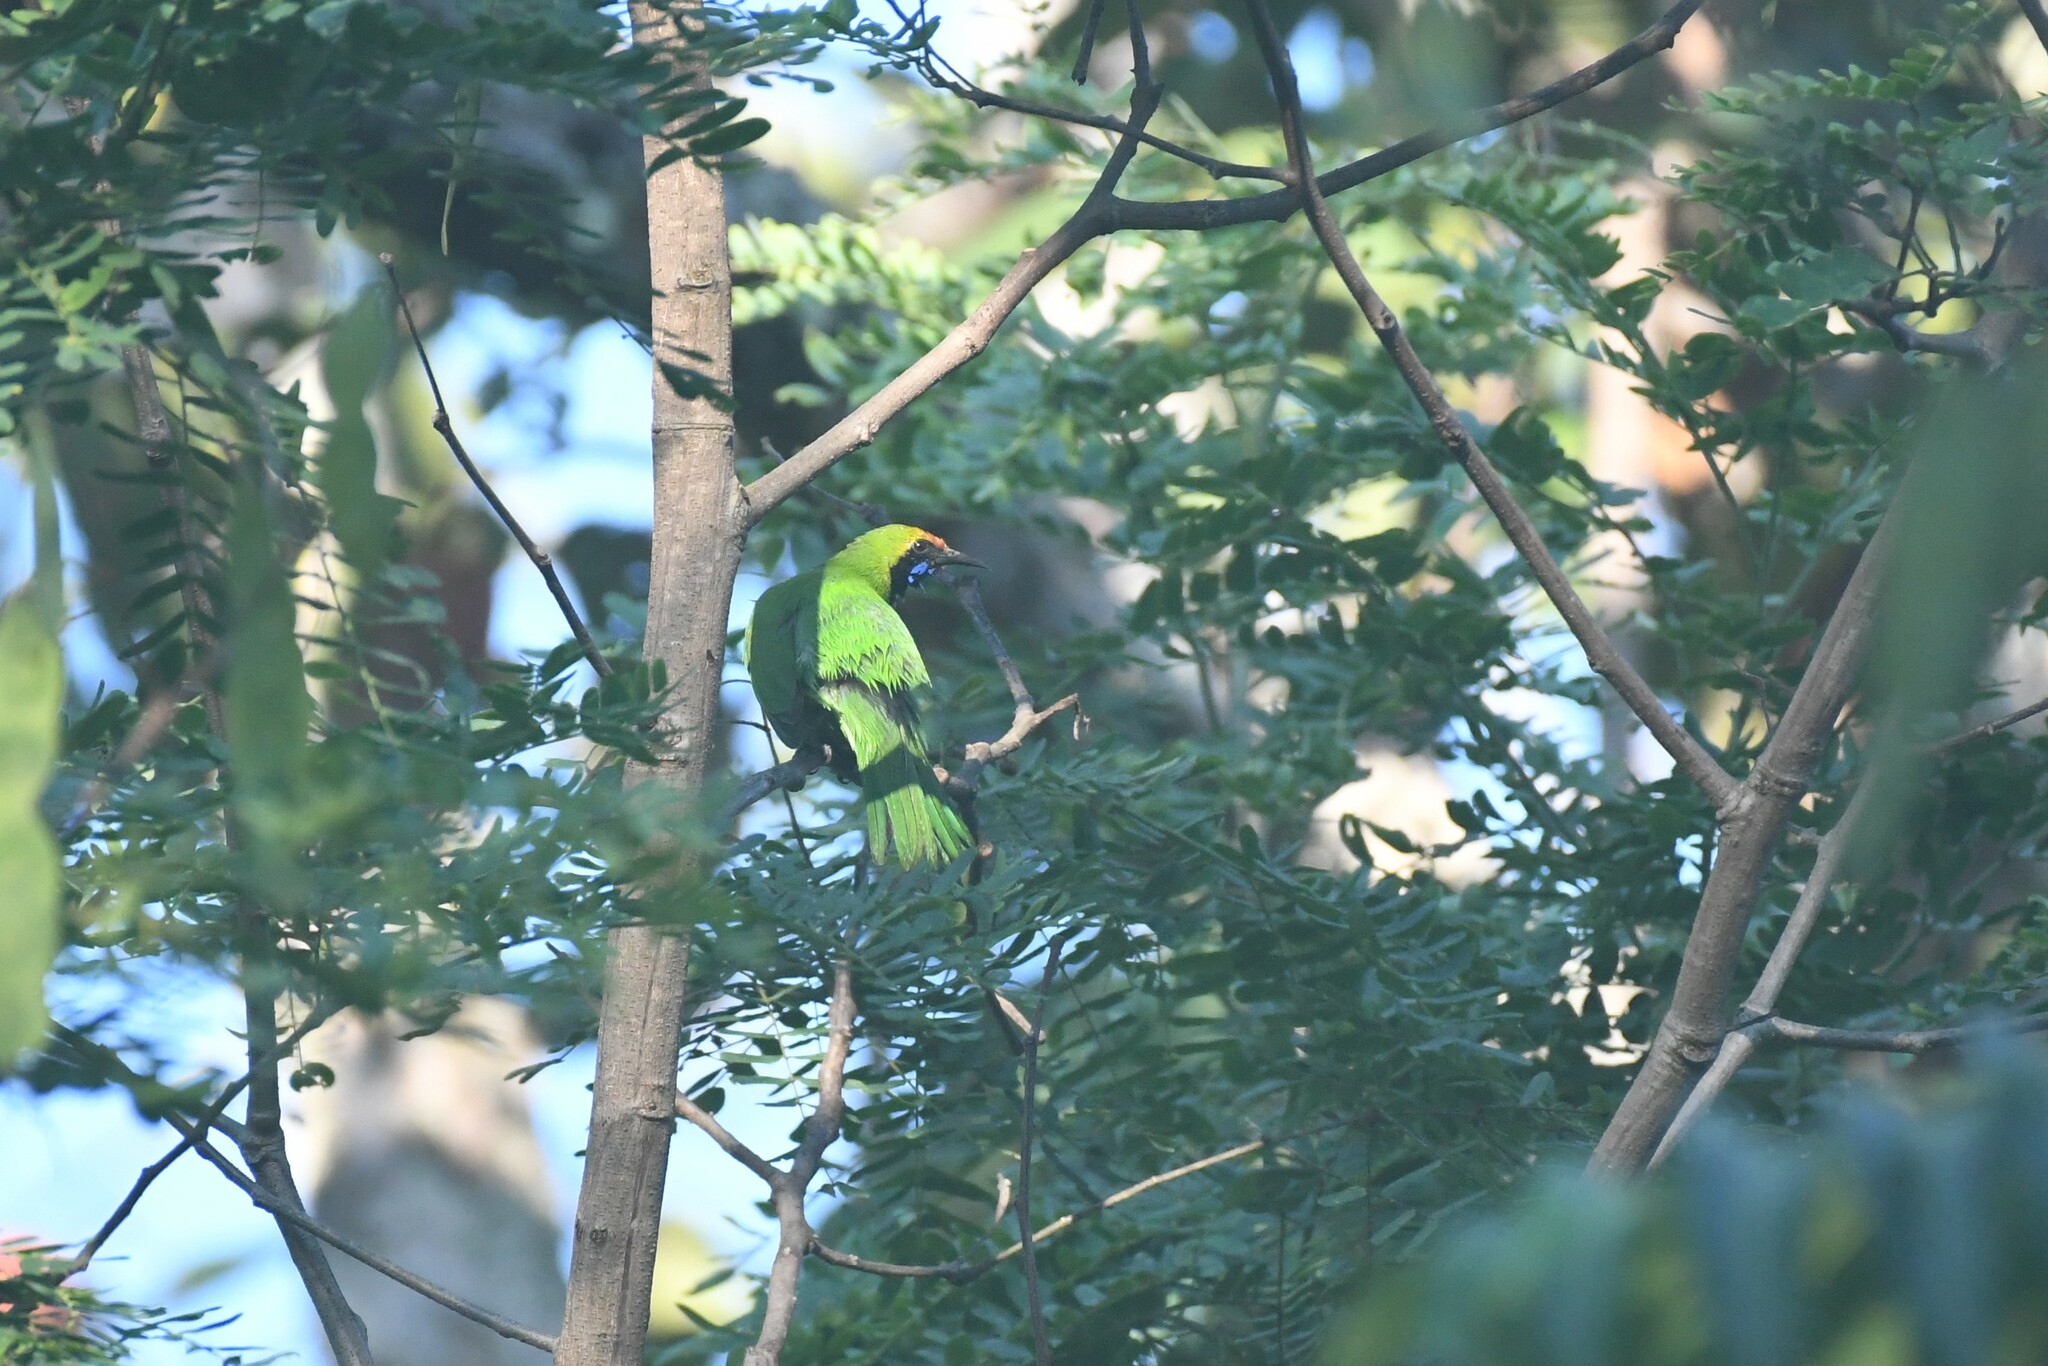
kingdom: Animalia
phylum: Chordata
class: Aves
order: Passeriformes
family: Chloropseidae
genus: Chloropsis
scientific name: Chloropsis aurifrons
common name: Golden-fronted leafbird
